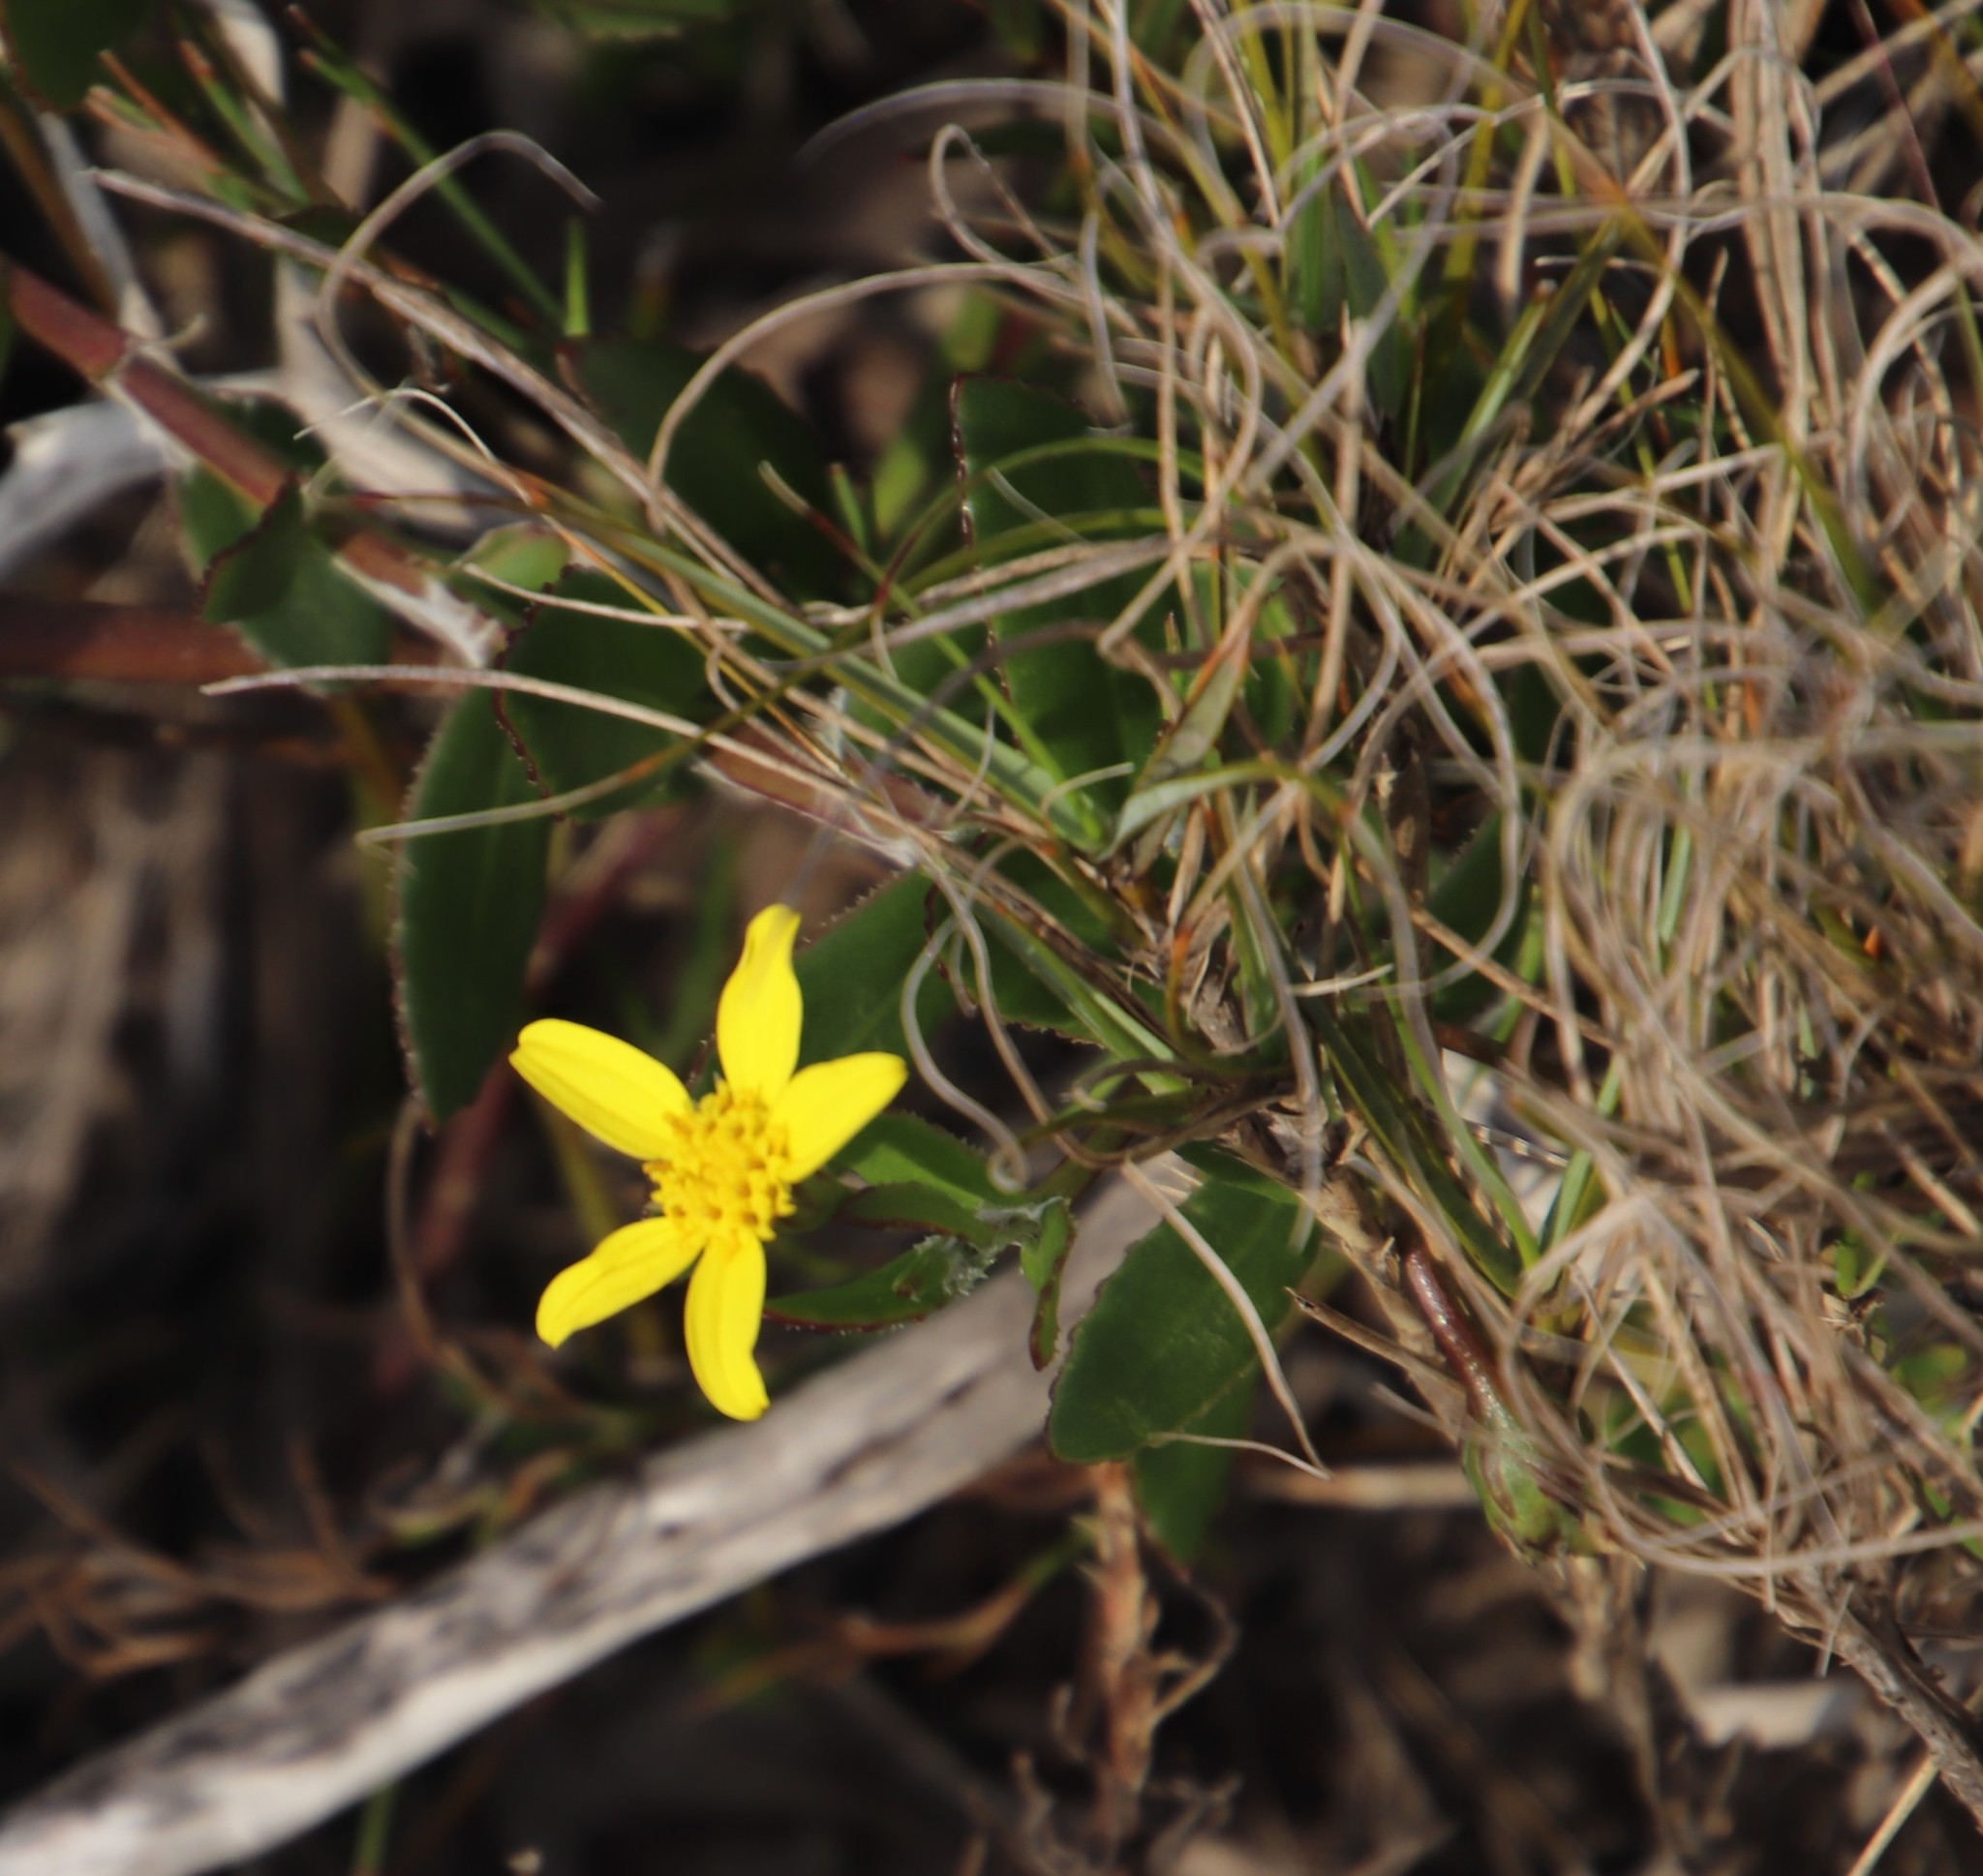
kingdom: Plantae
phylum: Tracheophyta
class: Magnoliopsida
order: Asterales
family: Asteraceae
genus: Osteospermum
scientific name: Osteospermum ciliatum
